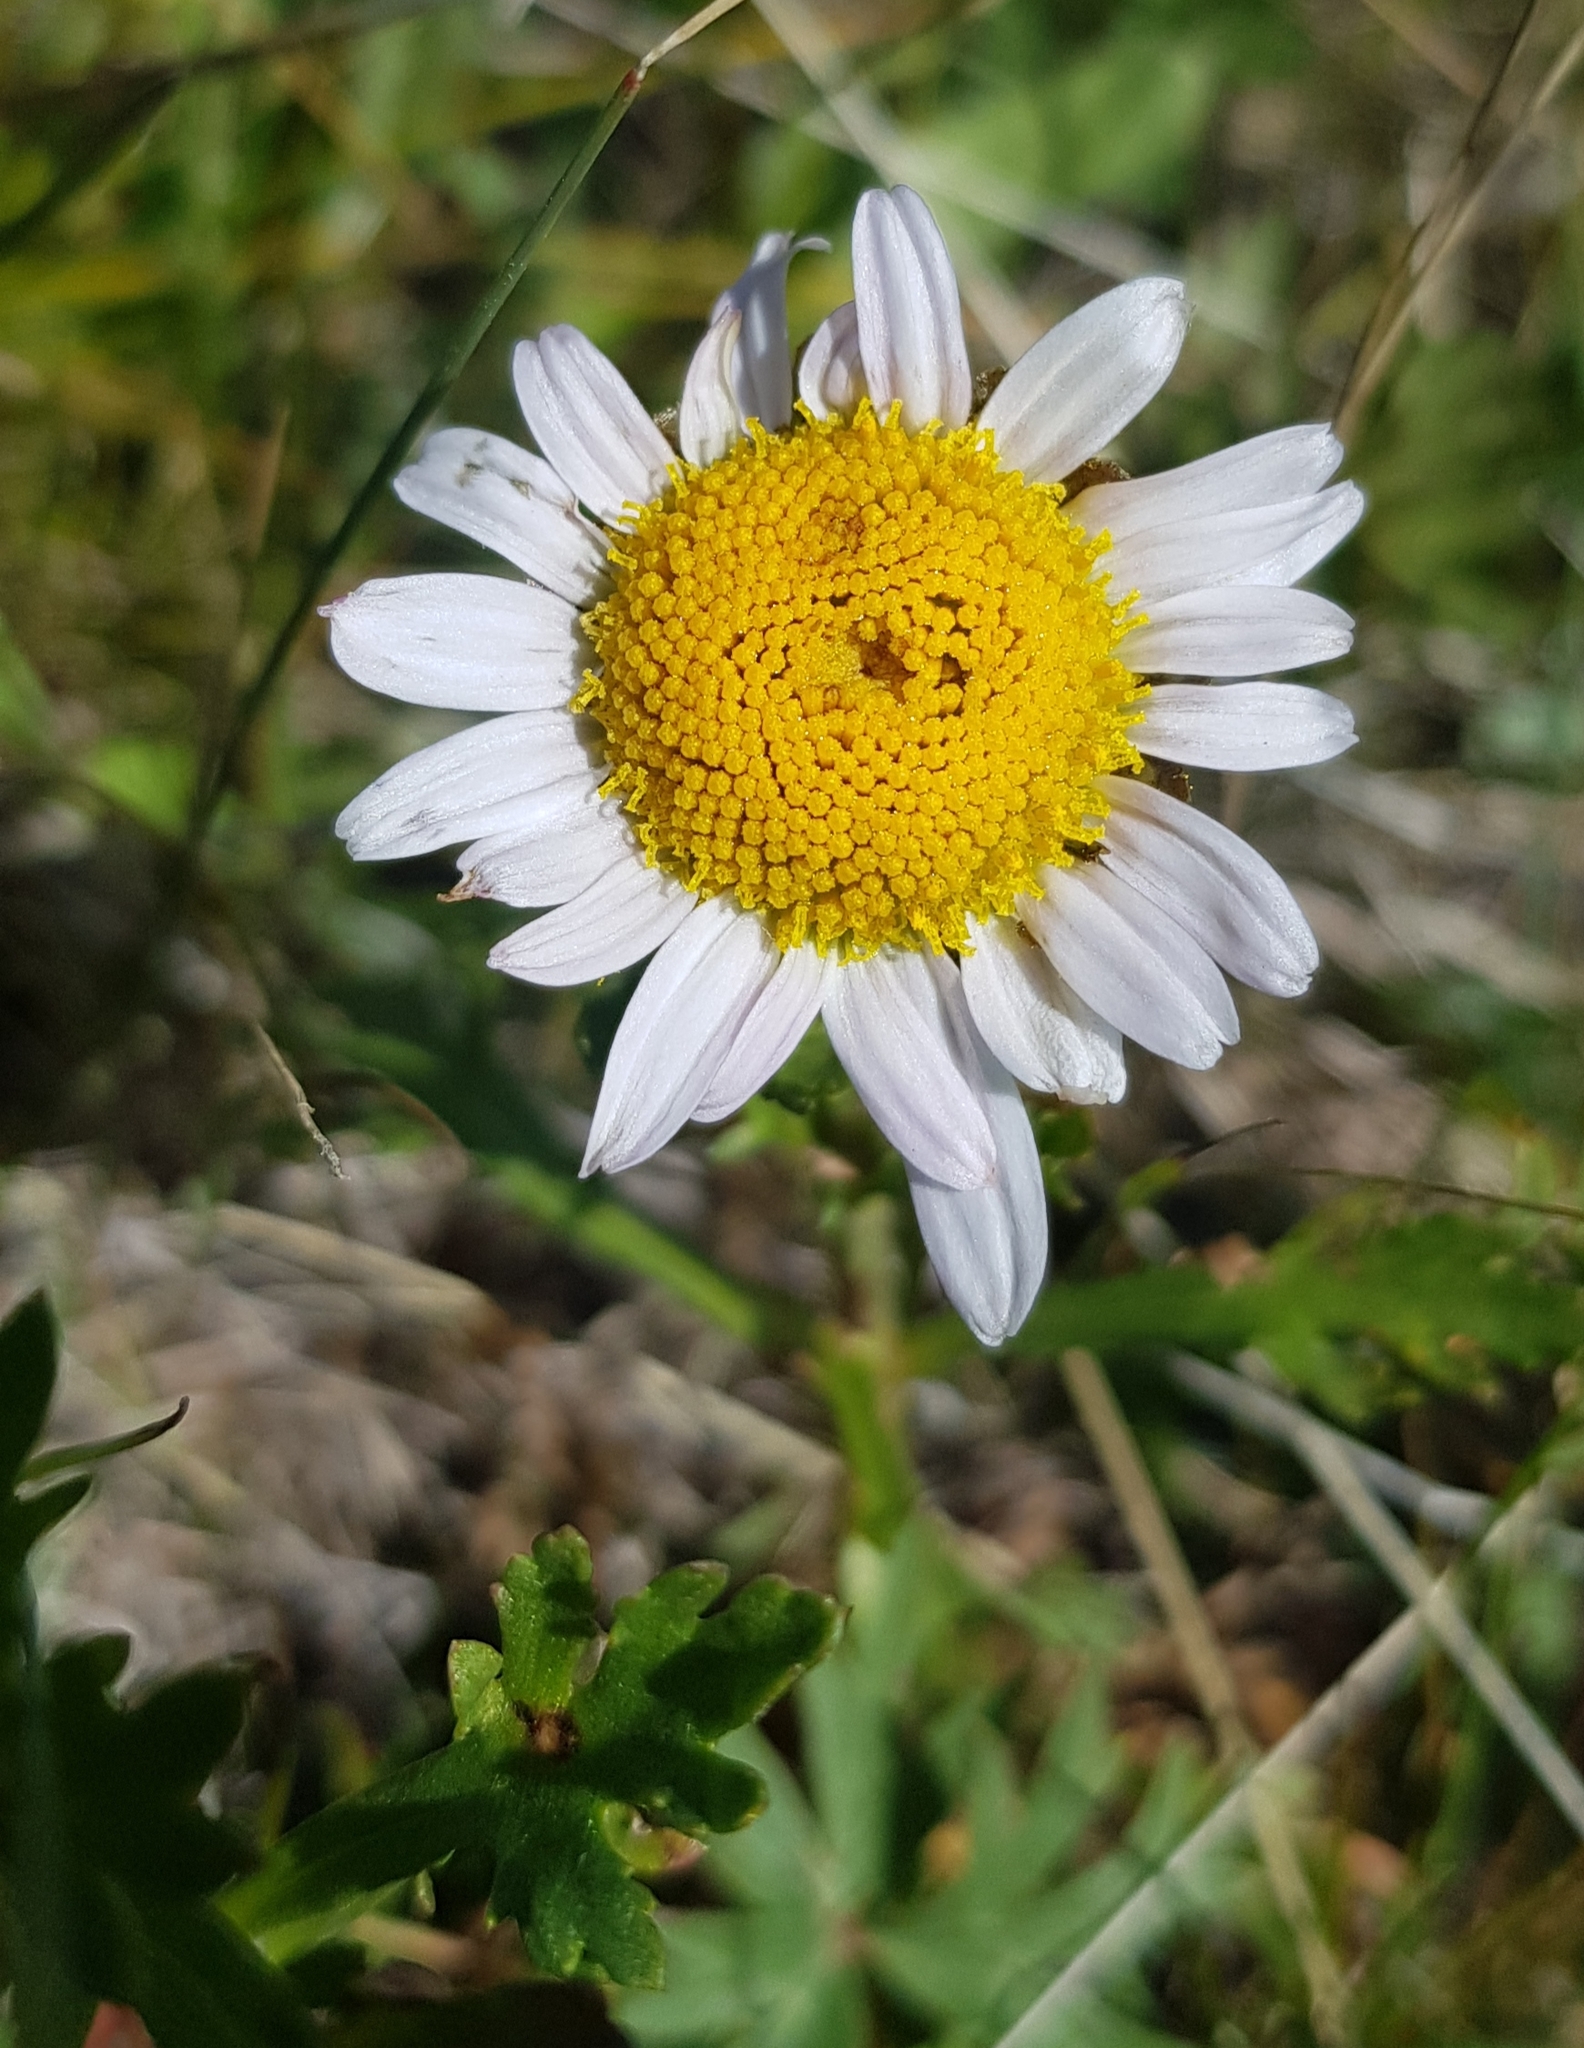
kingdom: Plantae
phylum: Tracheophyta
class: Magnoliopsida
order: Asterales
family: Asteraceae
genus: Chrysanthemum
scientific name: Chrysanthemum zawadzkii
